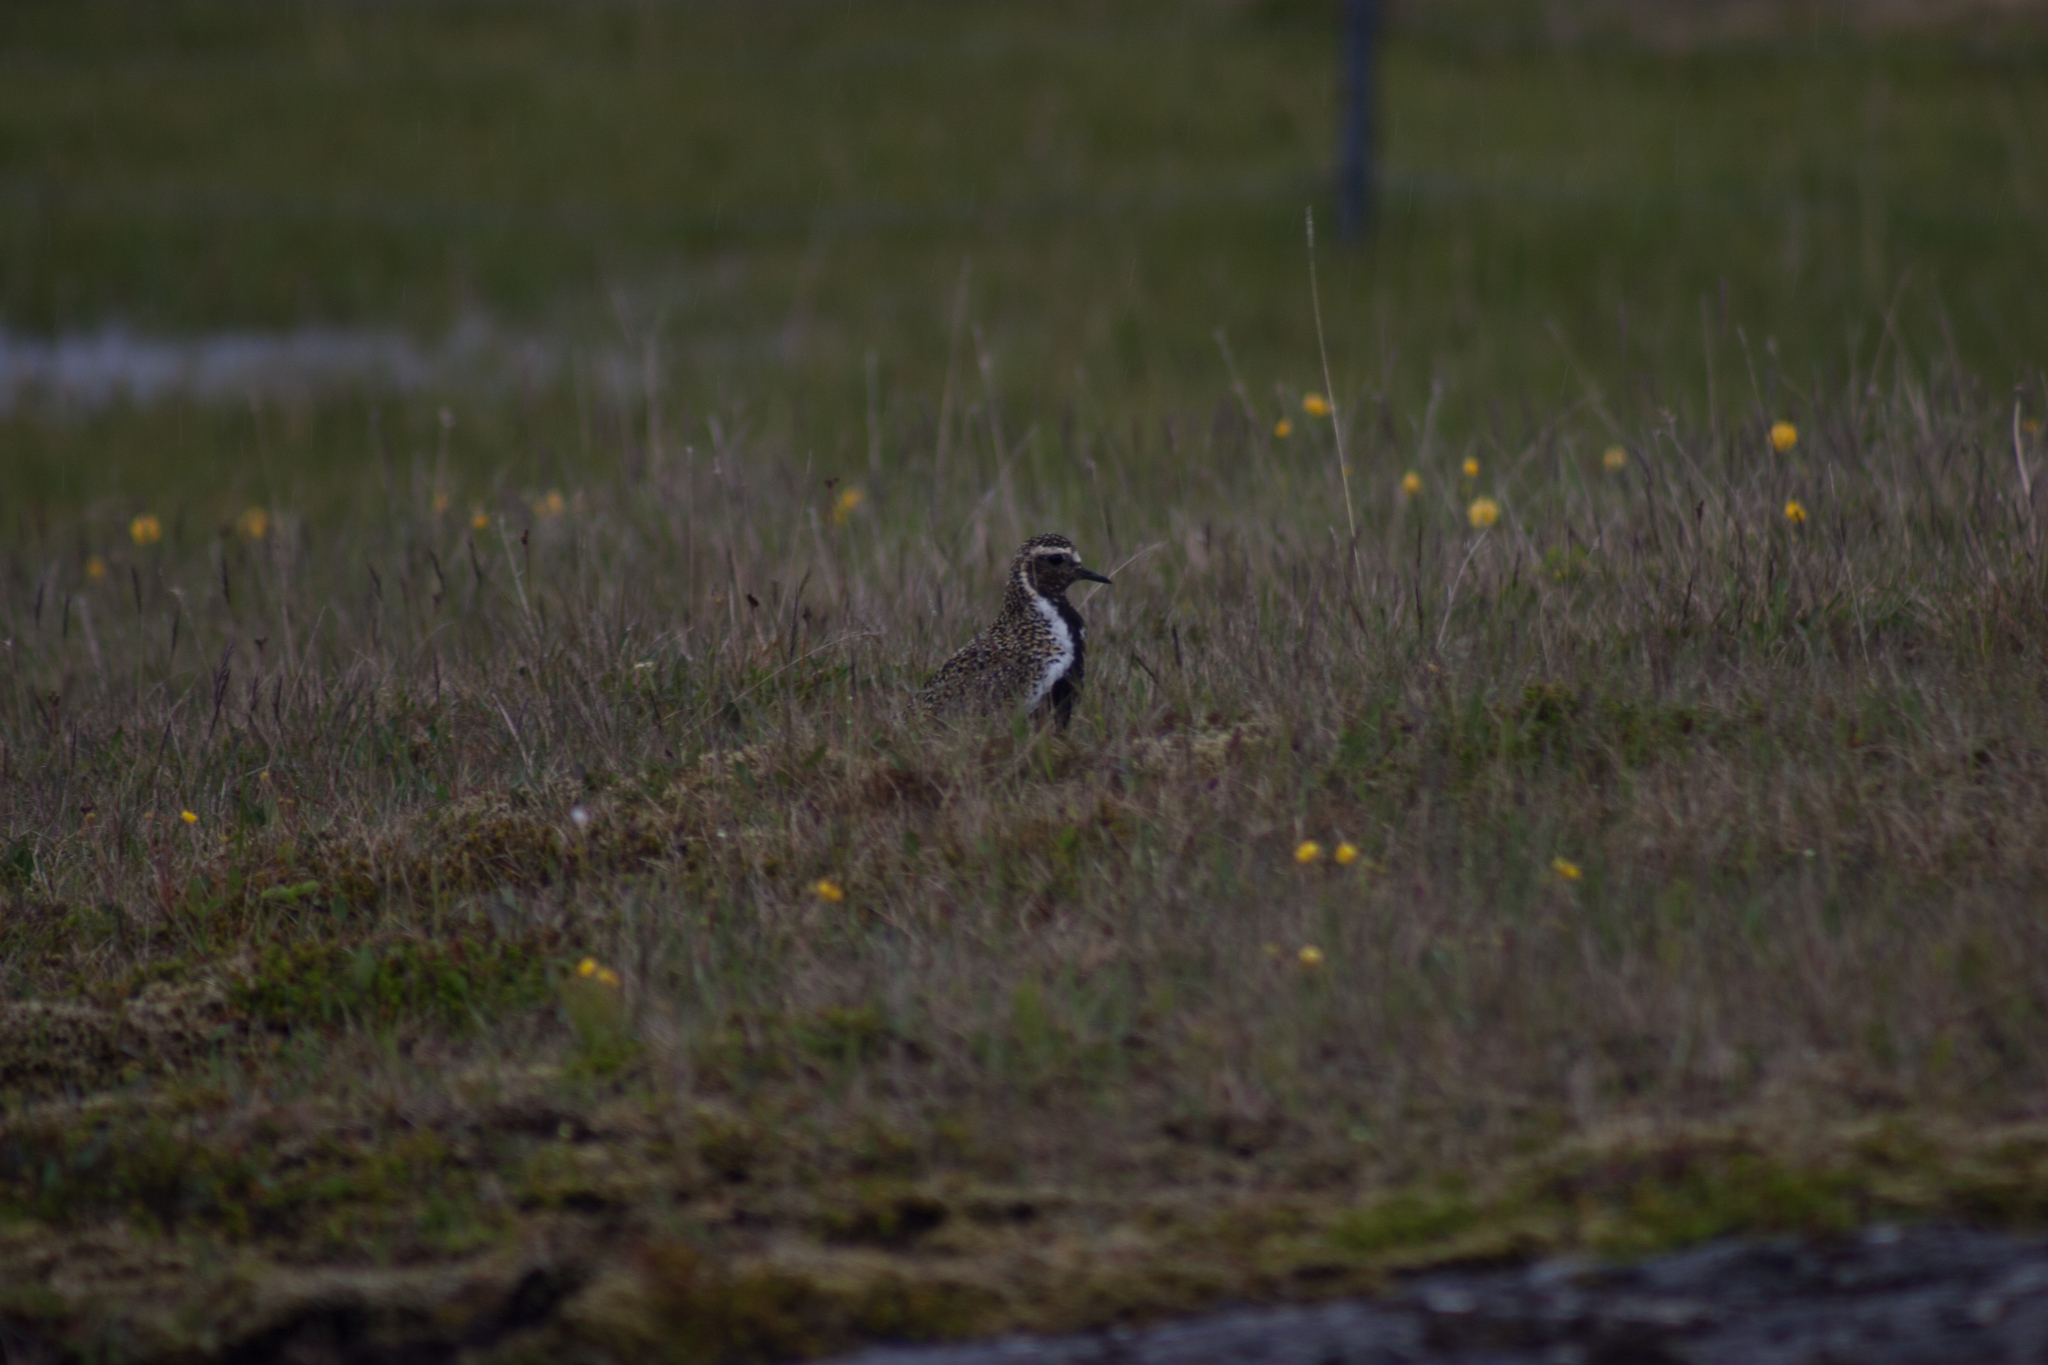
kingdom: Animalia
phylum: Chordata
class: Aves
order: Charadriiformes
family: Charadriidae
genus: Pluvialis
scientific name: Pluvialis apricaria
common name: European golden plover
